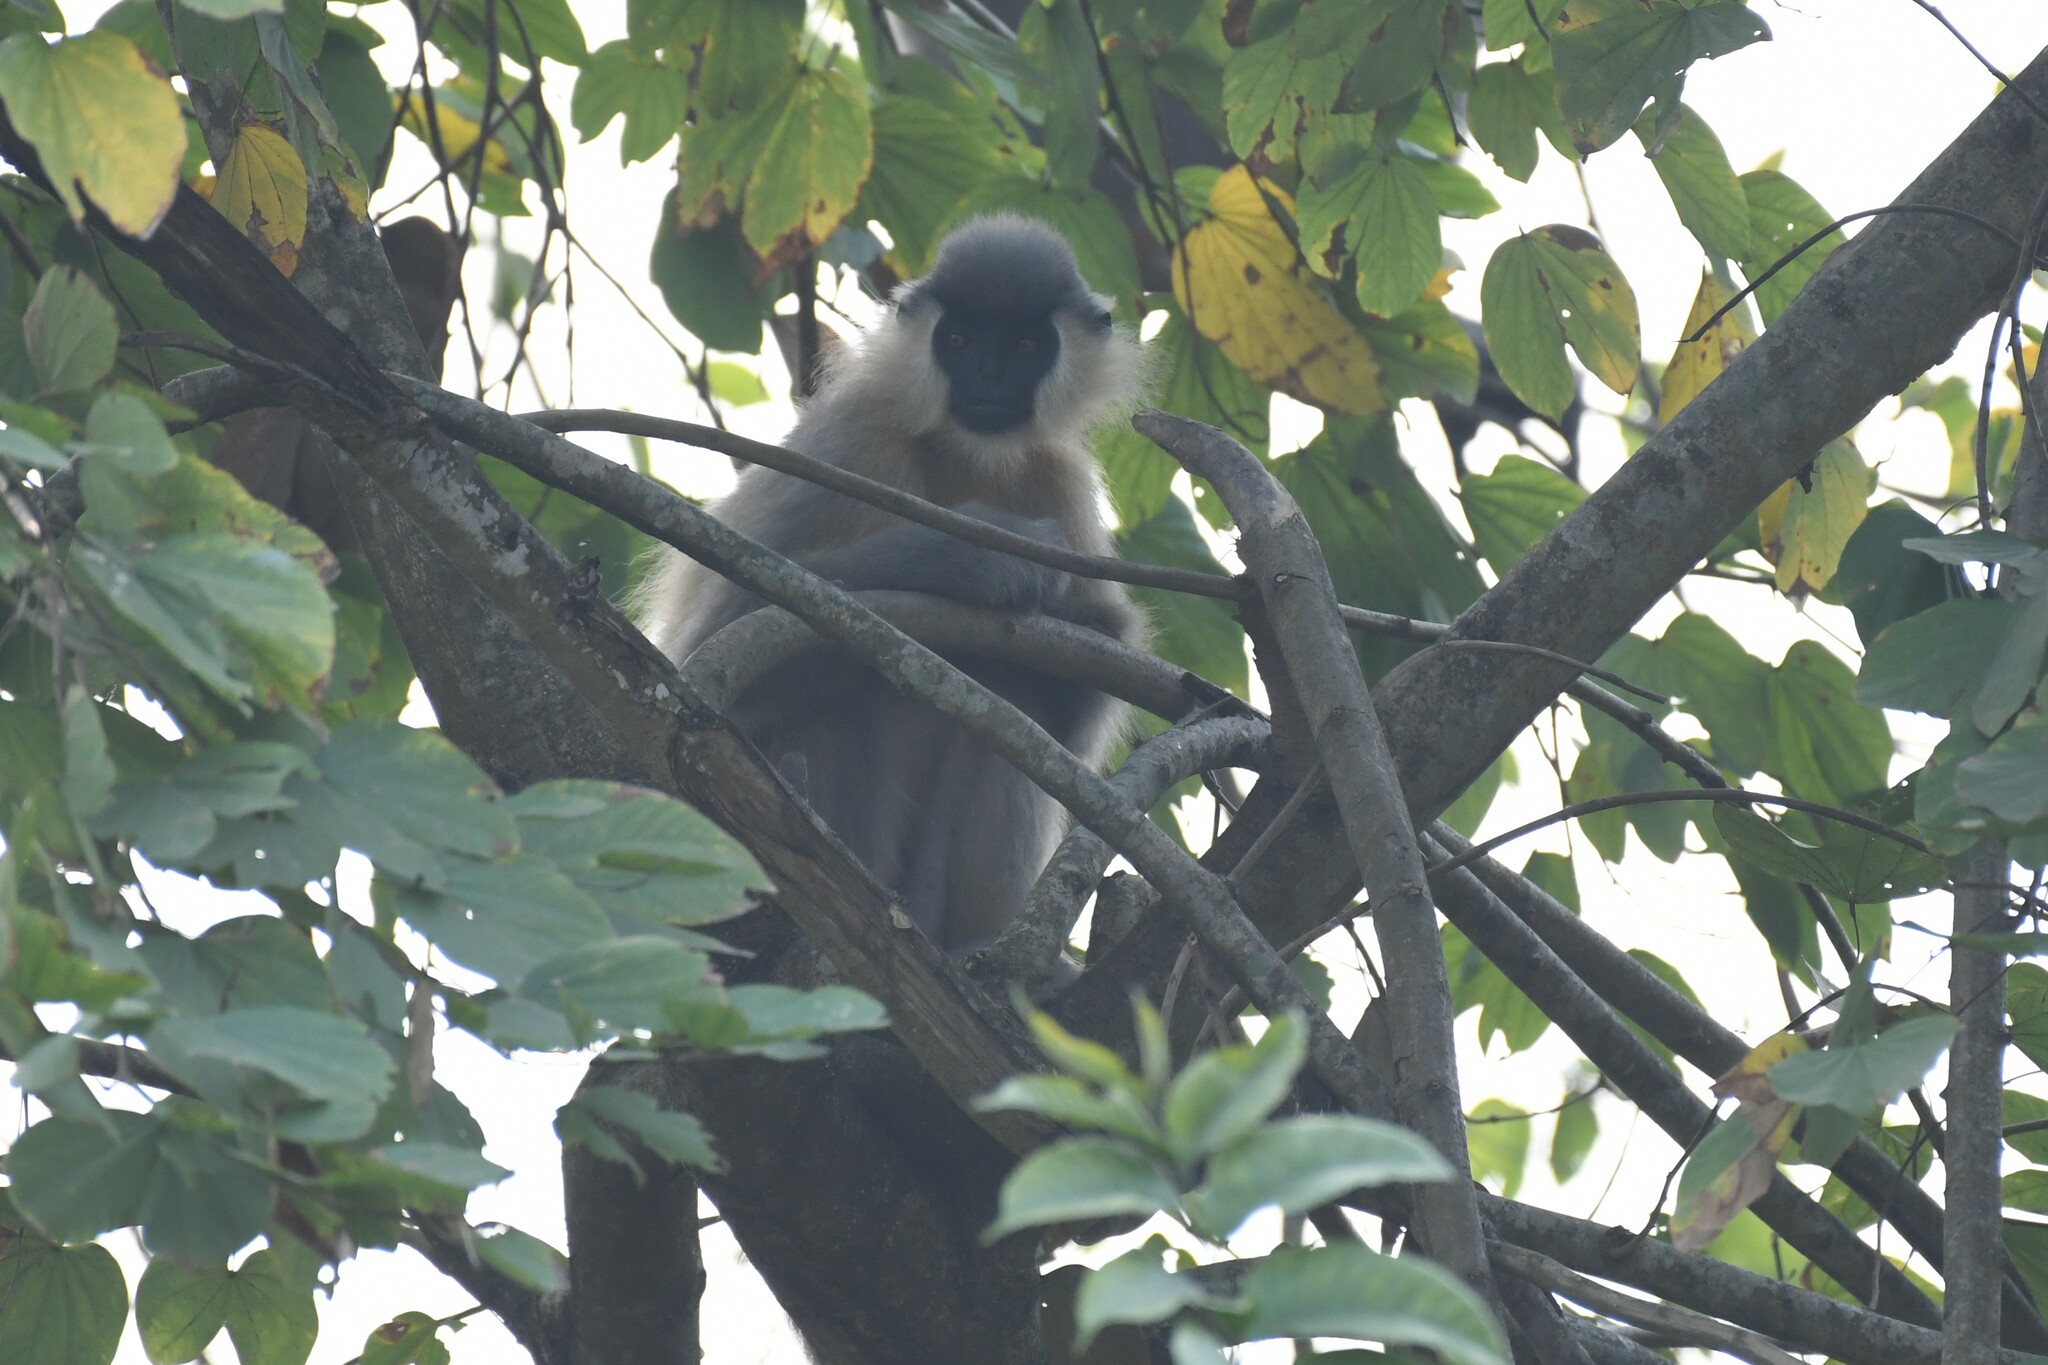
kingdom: Animalia
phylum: Chordata
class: Mammalia
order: Primates
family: Cercopithecidae
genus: Trachypithecus
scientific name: Trachypithecus pileatus
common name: Capped langur
